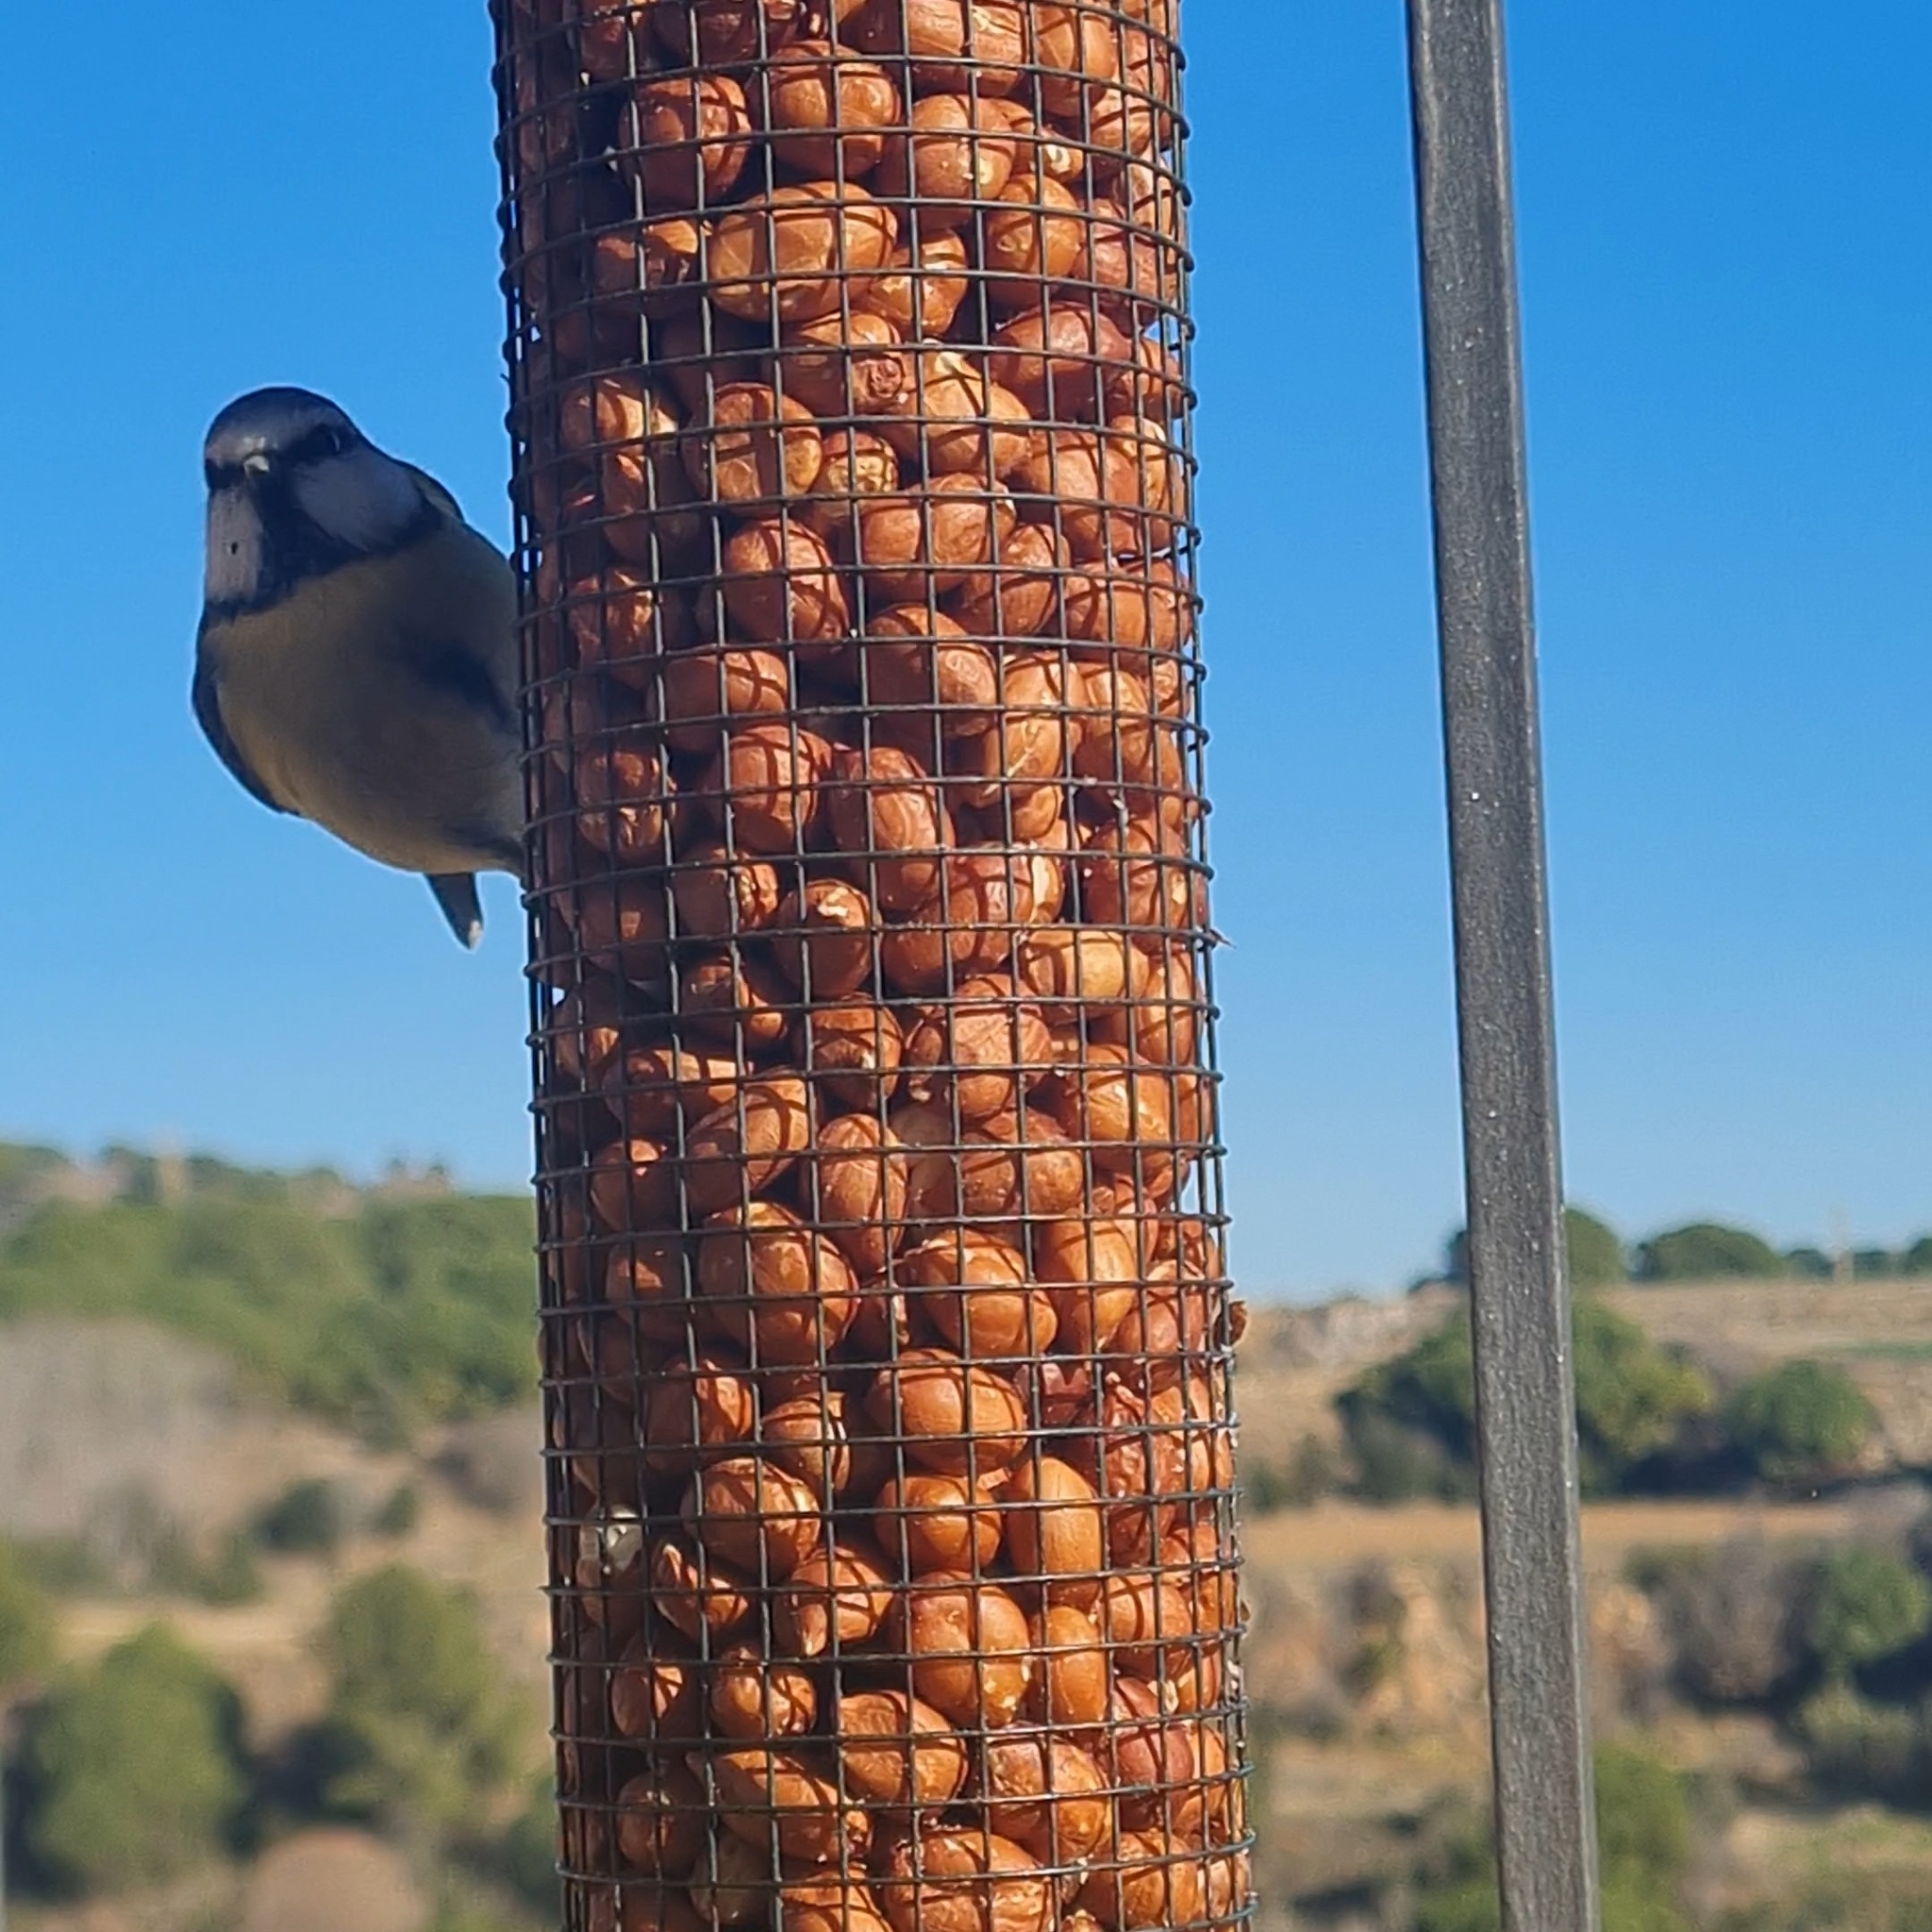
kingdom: Animalia
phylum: Chordata
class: Aves
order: Passeriformes
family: Paridae
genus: Cyanistes
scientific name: Cyanistes caeruleus
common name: Eurasian blue tit
